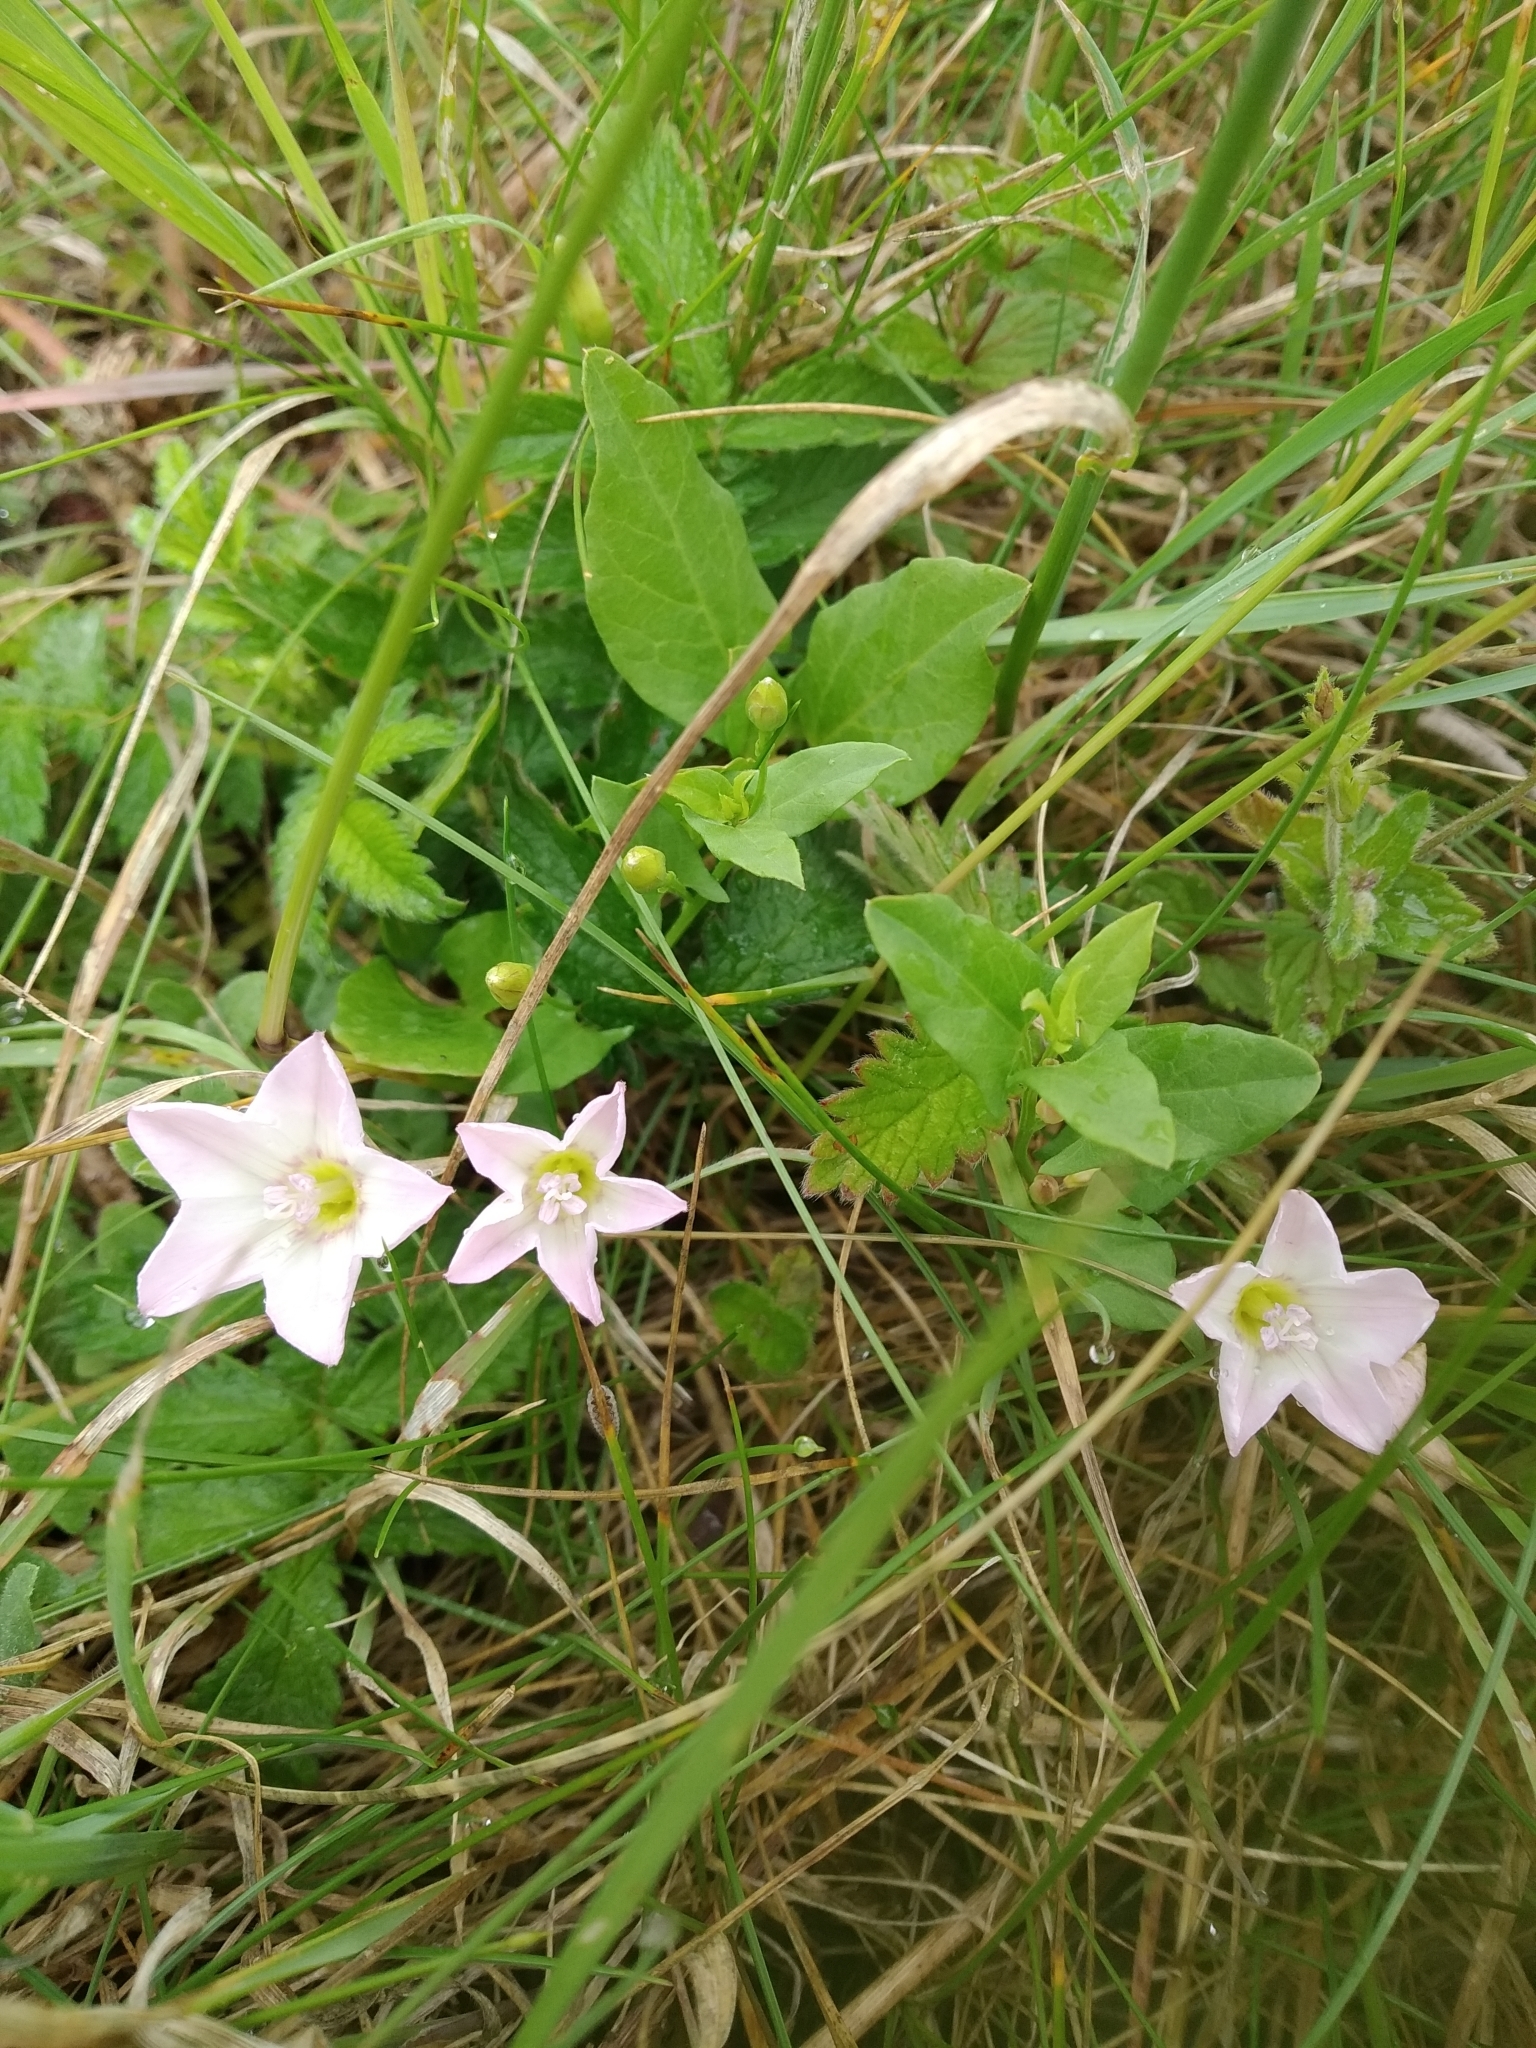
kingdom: Plantae
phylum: Tracheophyta
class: Magnoliopsida
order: Solanales
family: Convolvulaceae
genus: Convolvulus
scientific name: Convolvulus arvensis
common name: Field bindweed
